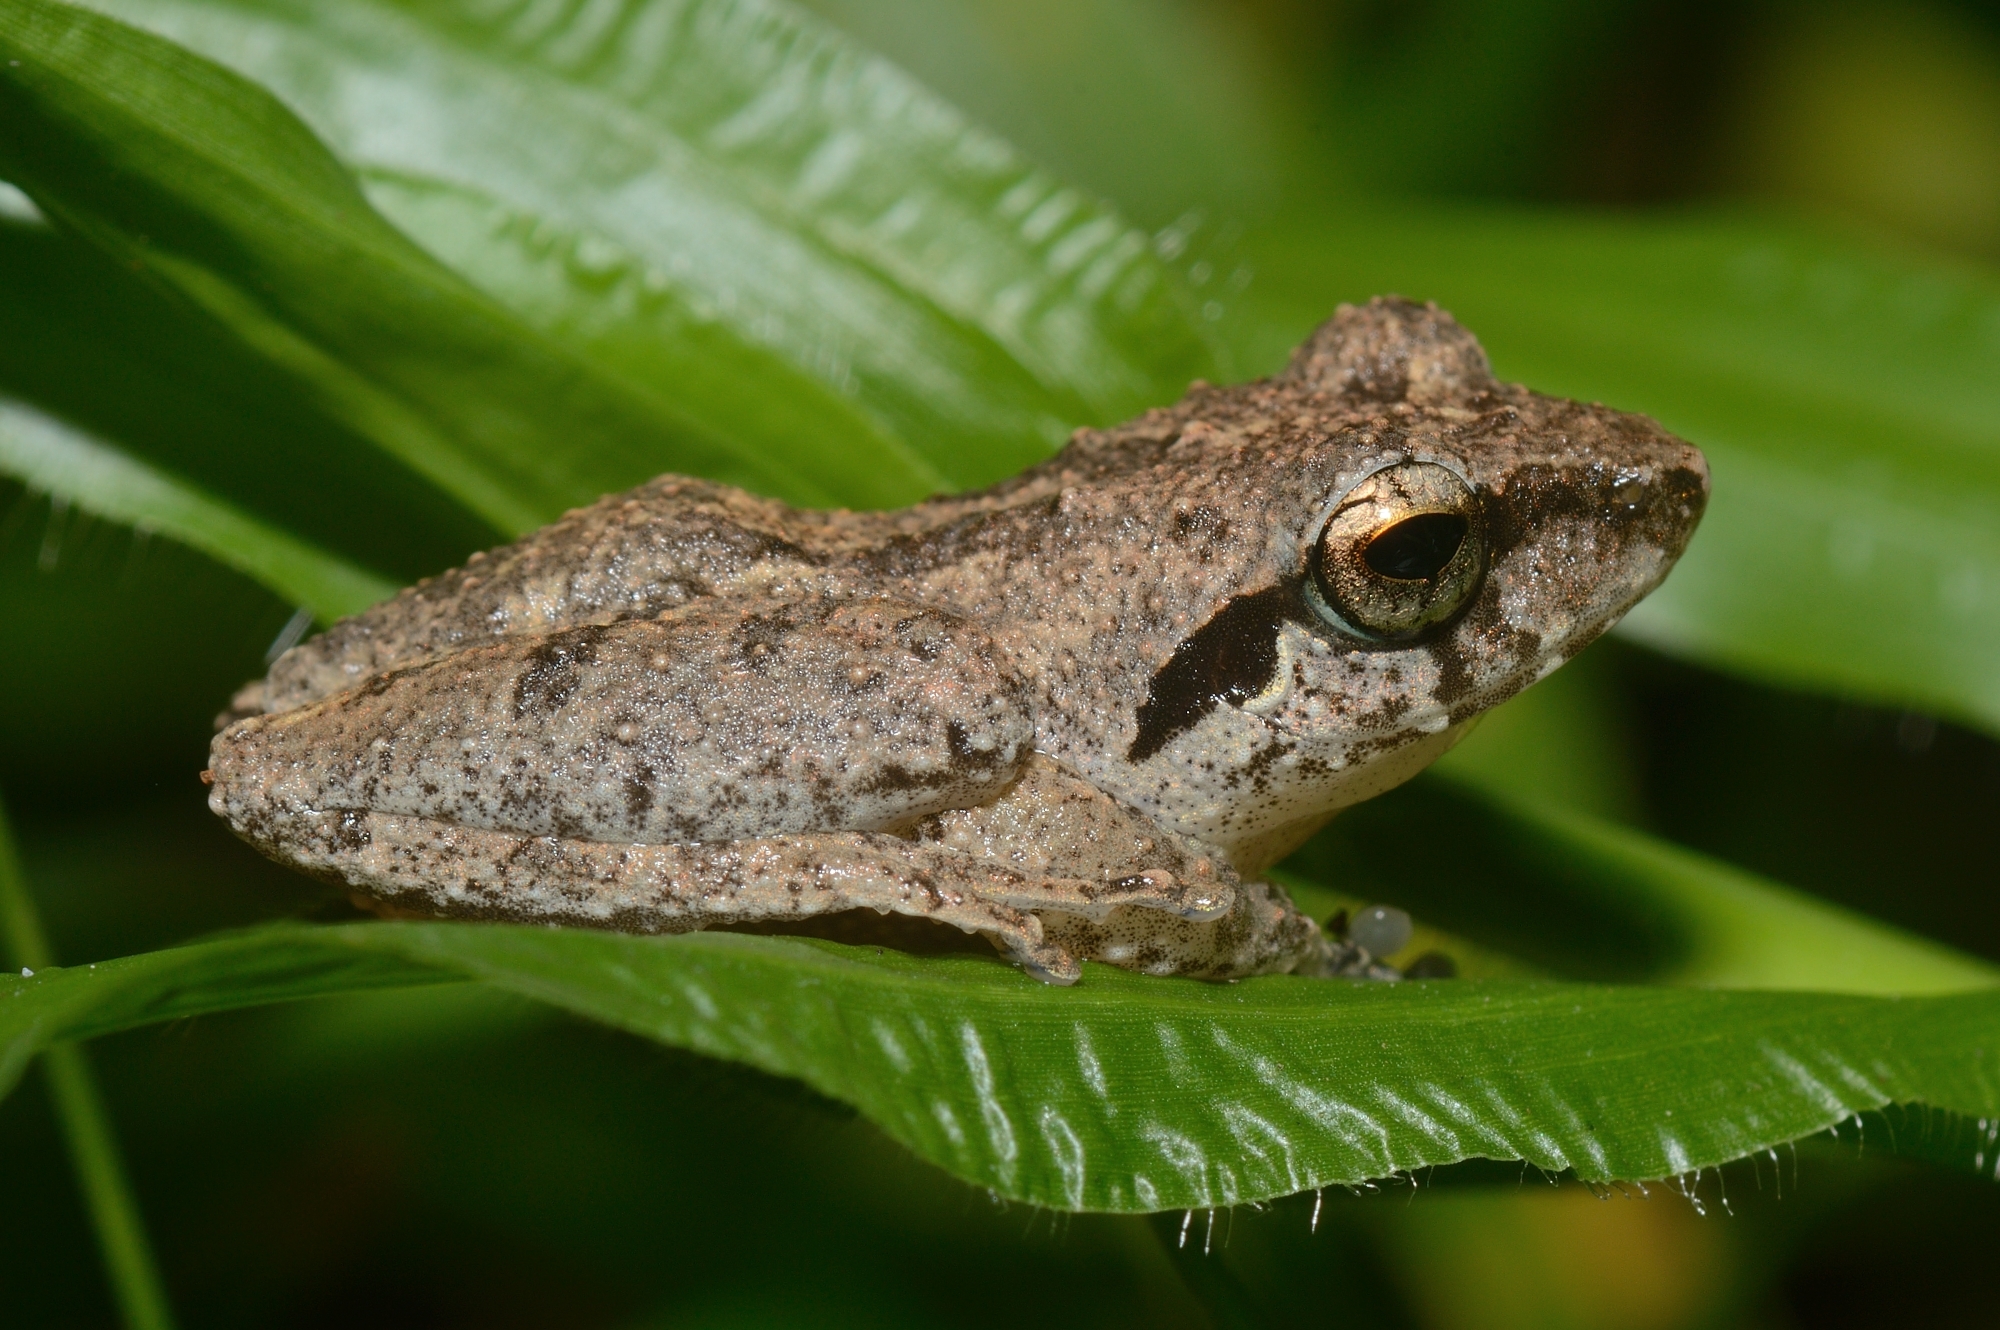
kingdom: Animalia
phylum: Chordata
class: Amphibia
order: Anura
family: Rhacophoridae
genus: Pseudophilautus
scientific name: Pseudophilautus wynaadensis
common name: Dark-eared bush frog
